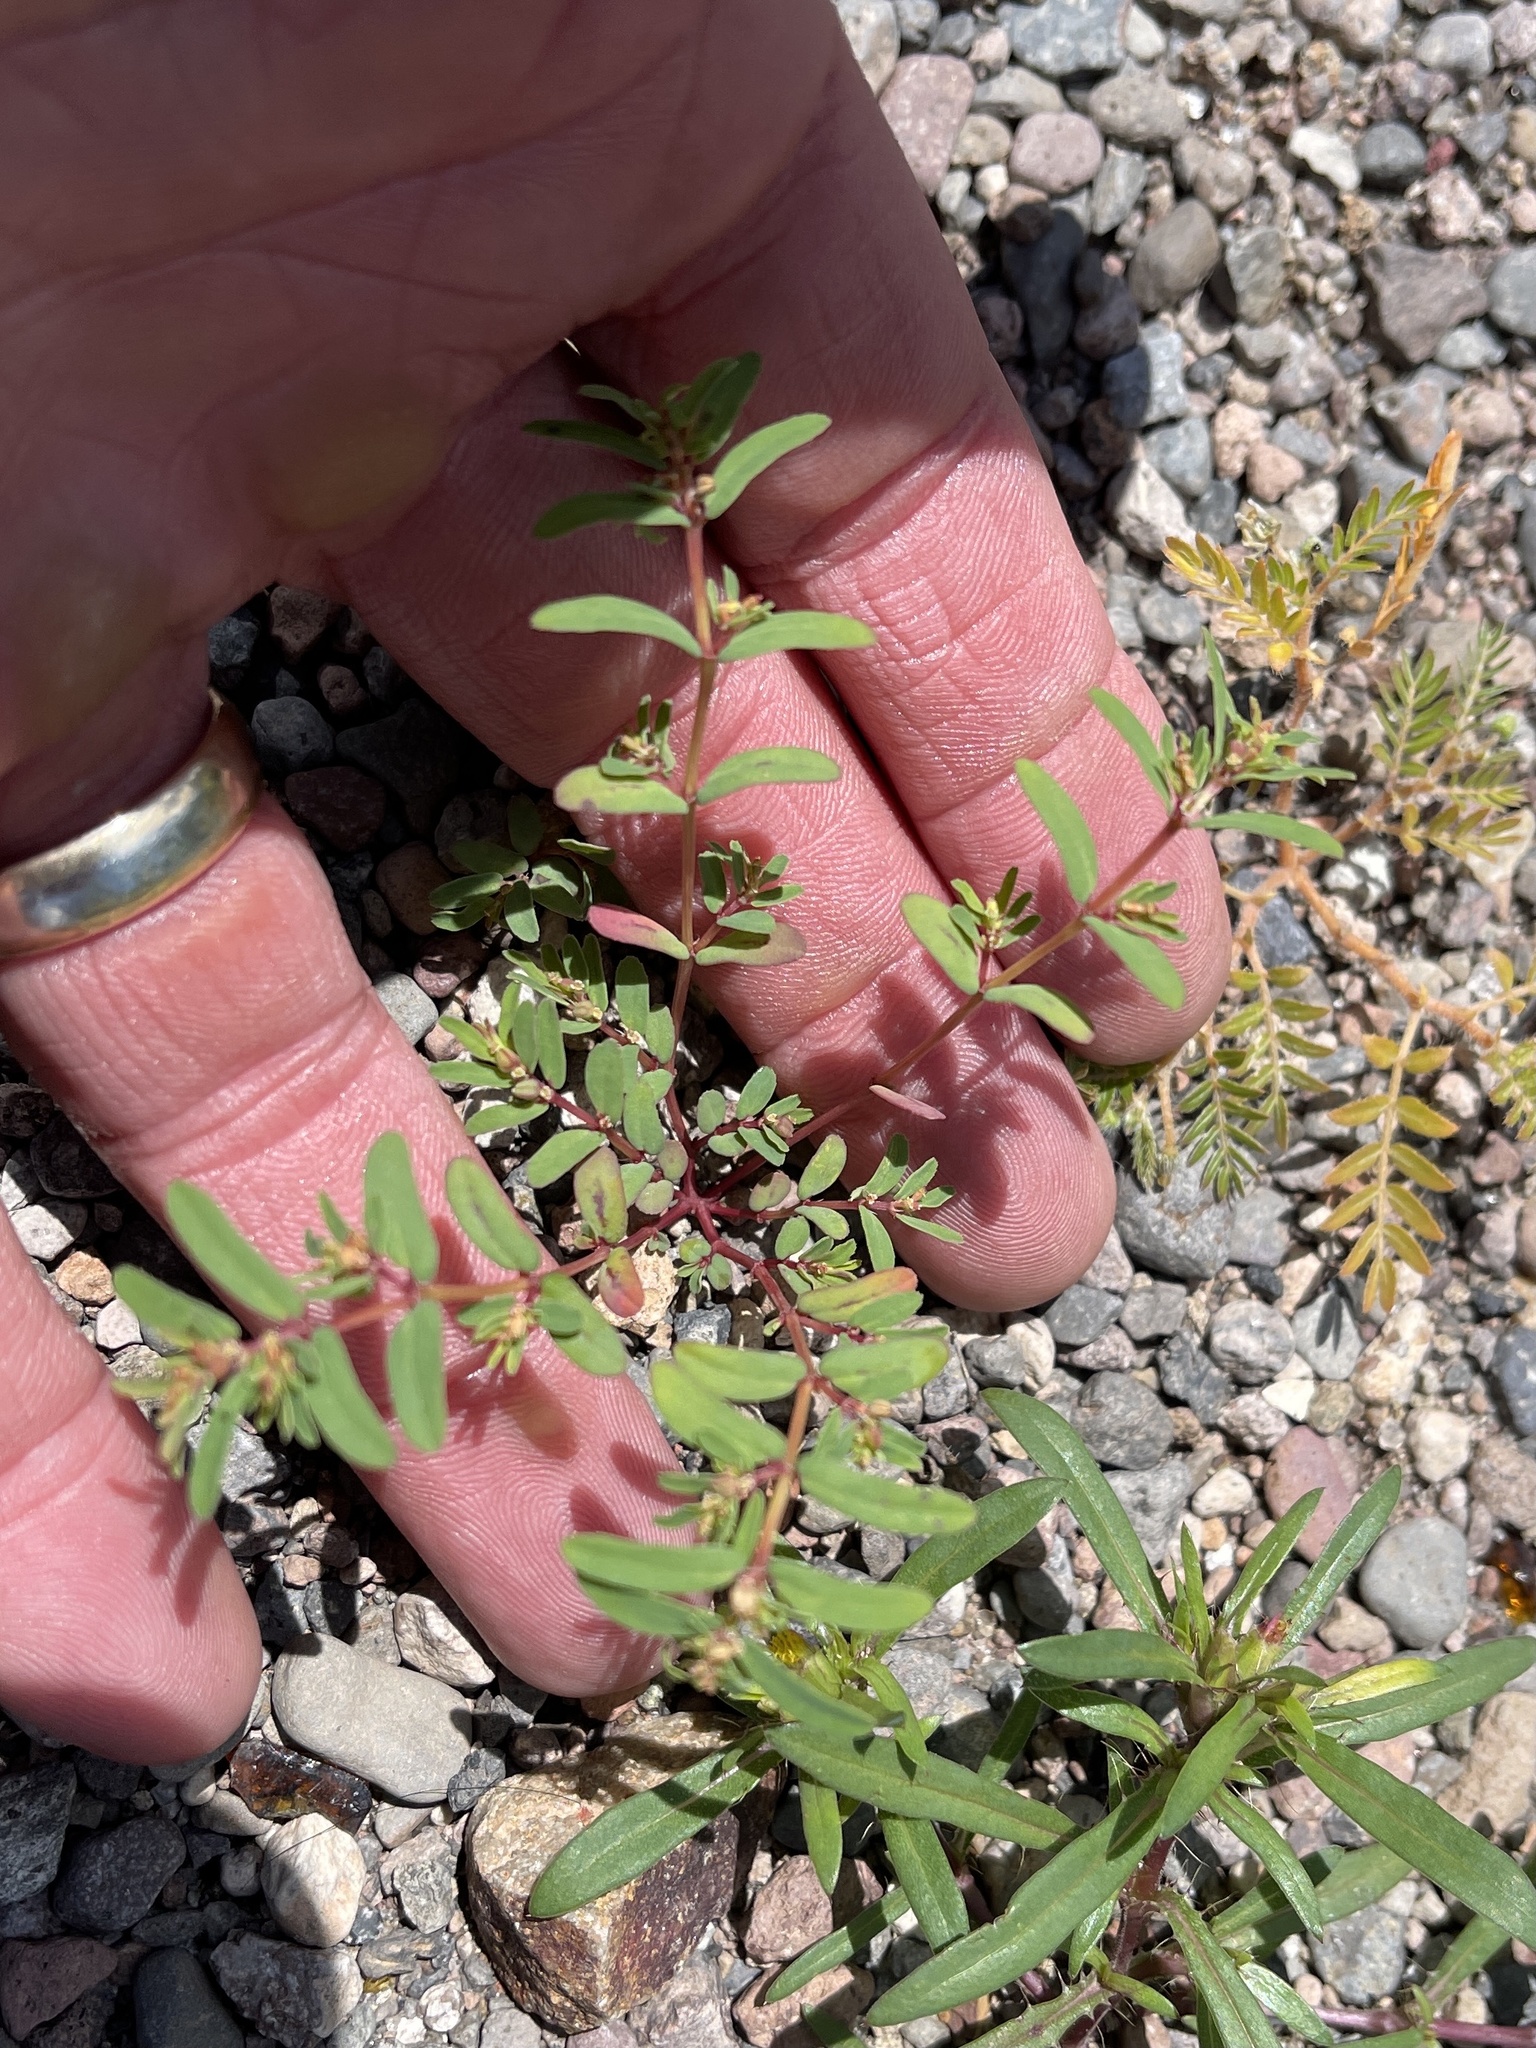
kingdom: Plantae
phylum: Tracheophyta
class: Magnoliopsida
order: Malpighiales
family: Euphorbiaceae
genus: Euphorbia
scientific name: Euphorbia serpillifolia
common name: Thyme-leaf spurge
